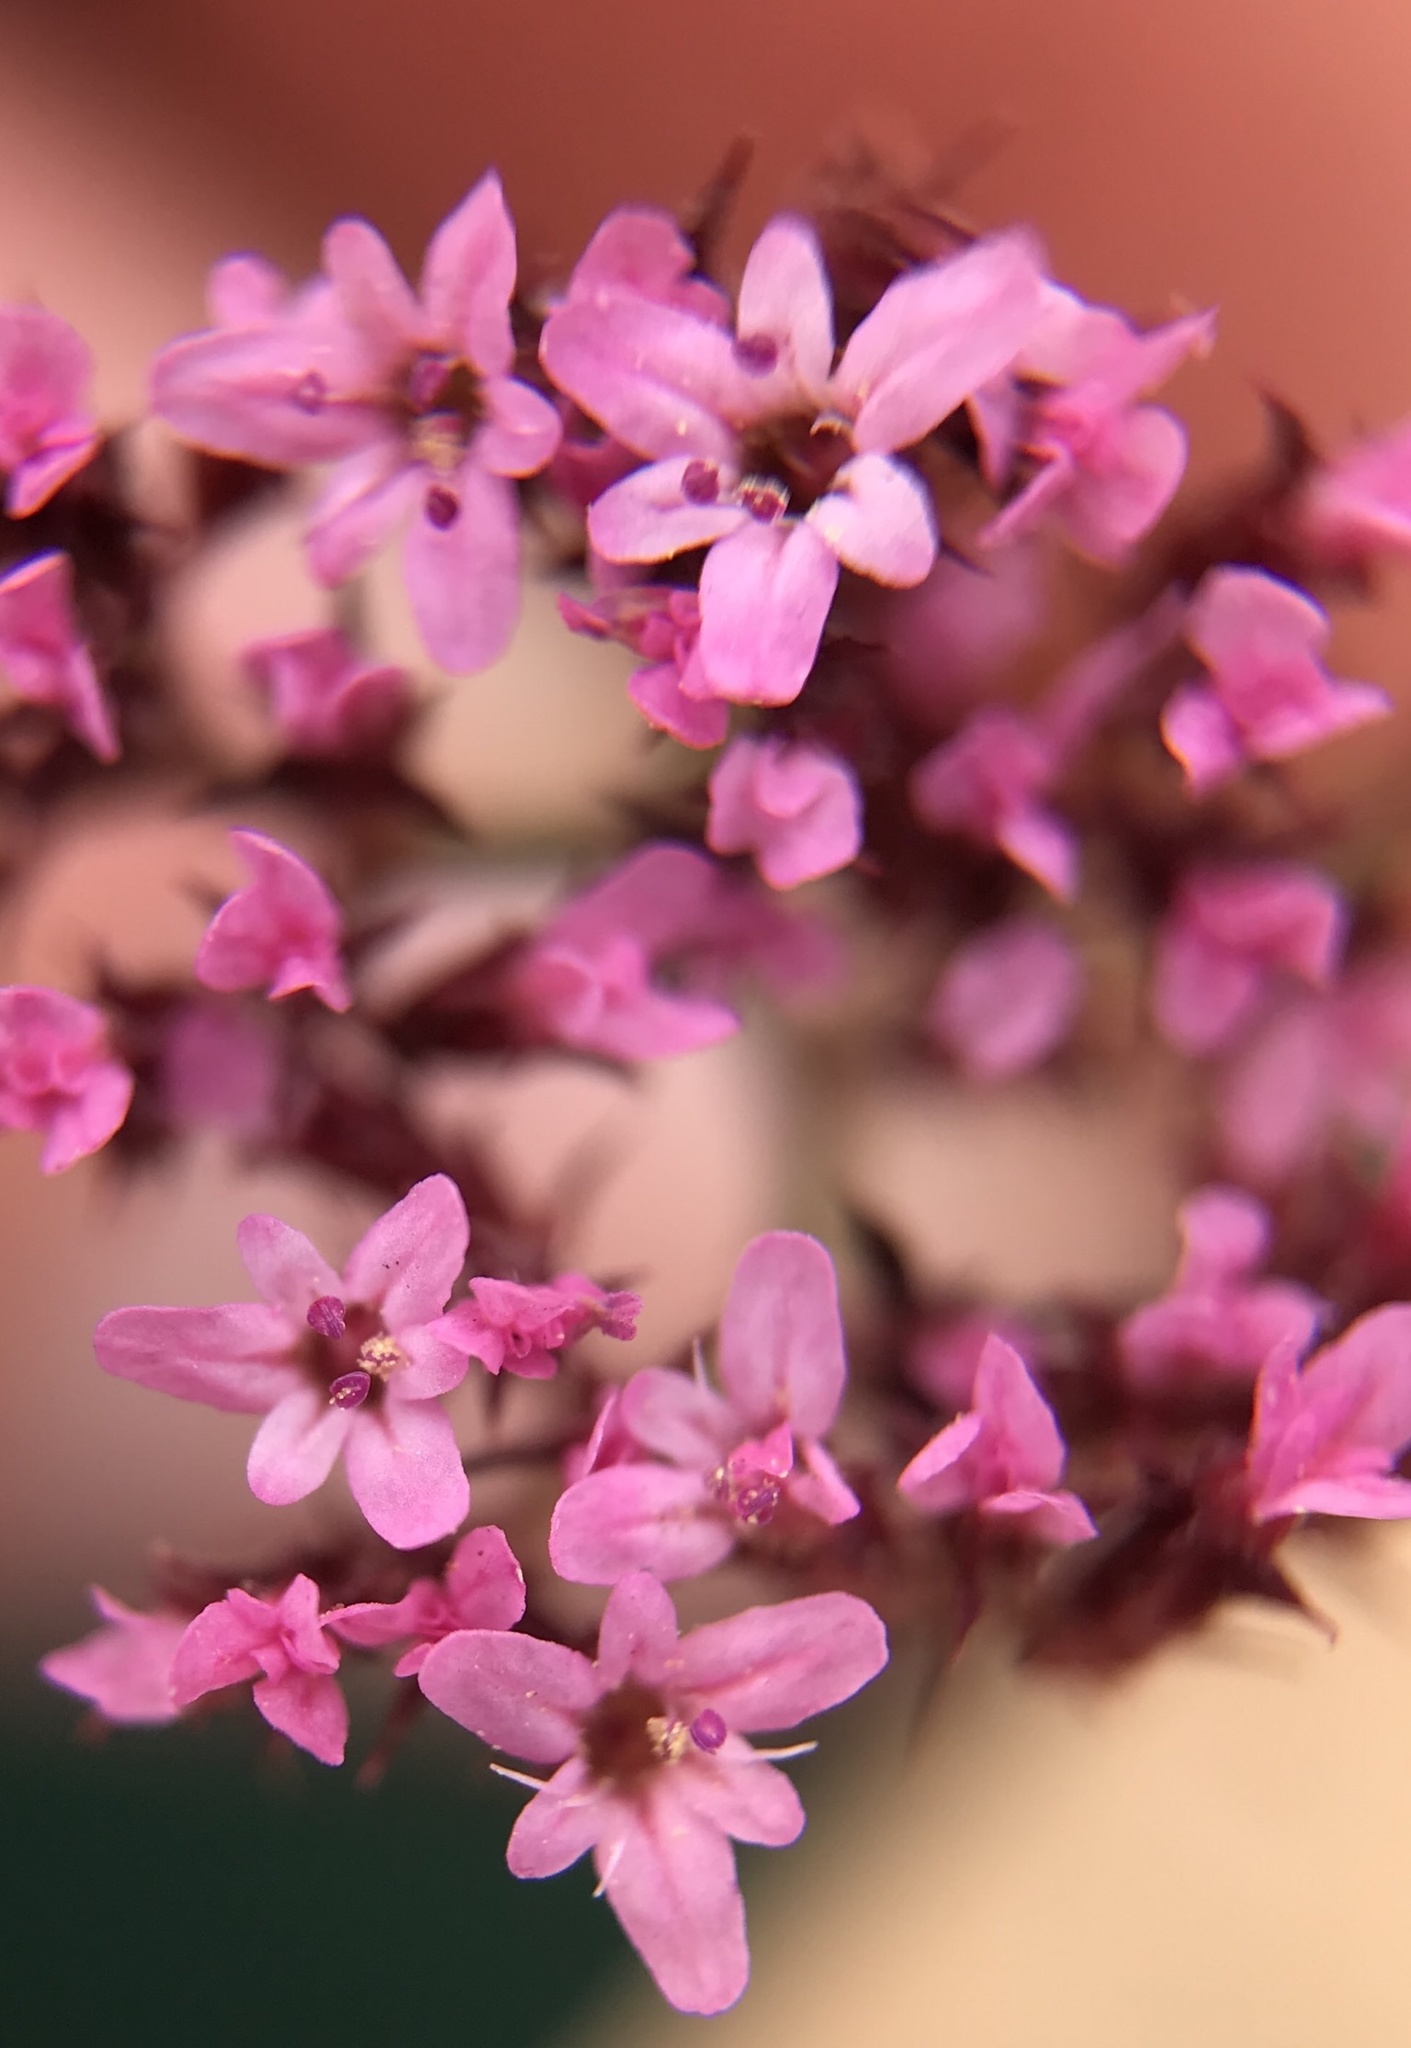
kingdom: Plantae
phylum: Tracheophyta
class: Magnoliopsida
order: Caryophyllales
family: Polygonaceae
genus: Chorizanthe
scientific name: Chorizanthe staticoides
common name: Turkish rugging
